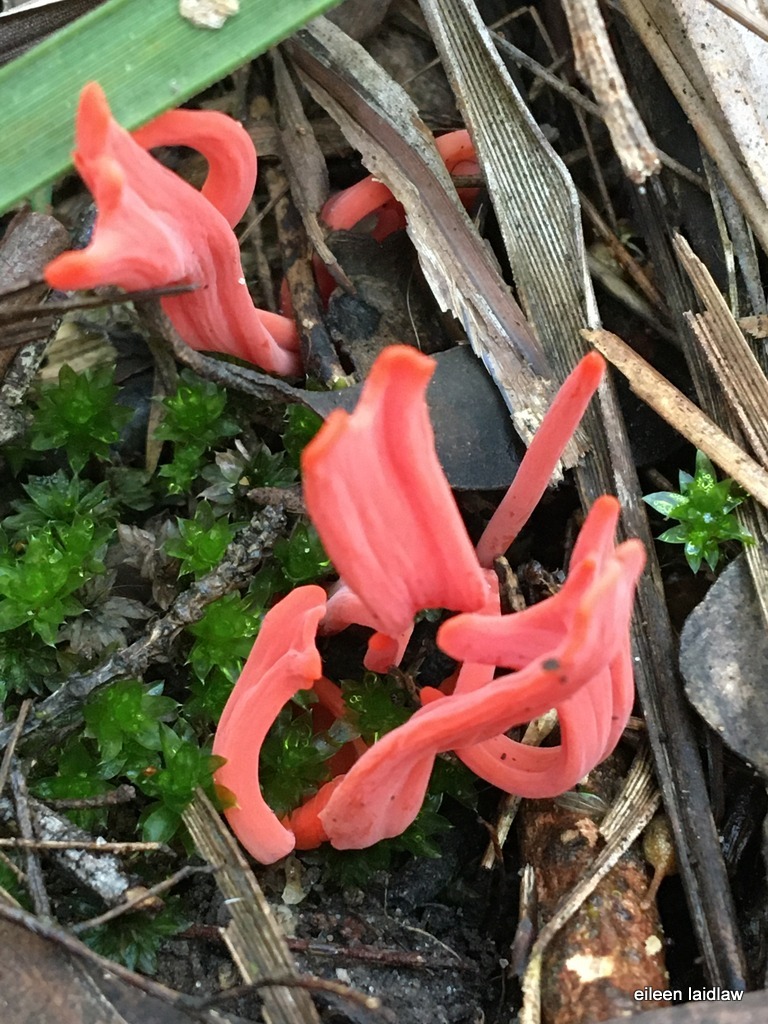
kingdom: Fungi
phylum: Basidiomycota
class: Agaricomycetes
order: Agaricales
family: Clavariaceae
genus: Clavulinopsis
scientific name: Clavulinopsis sulcata
